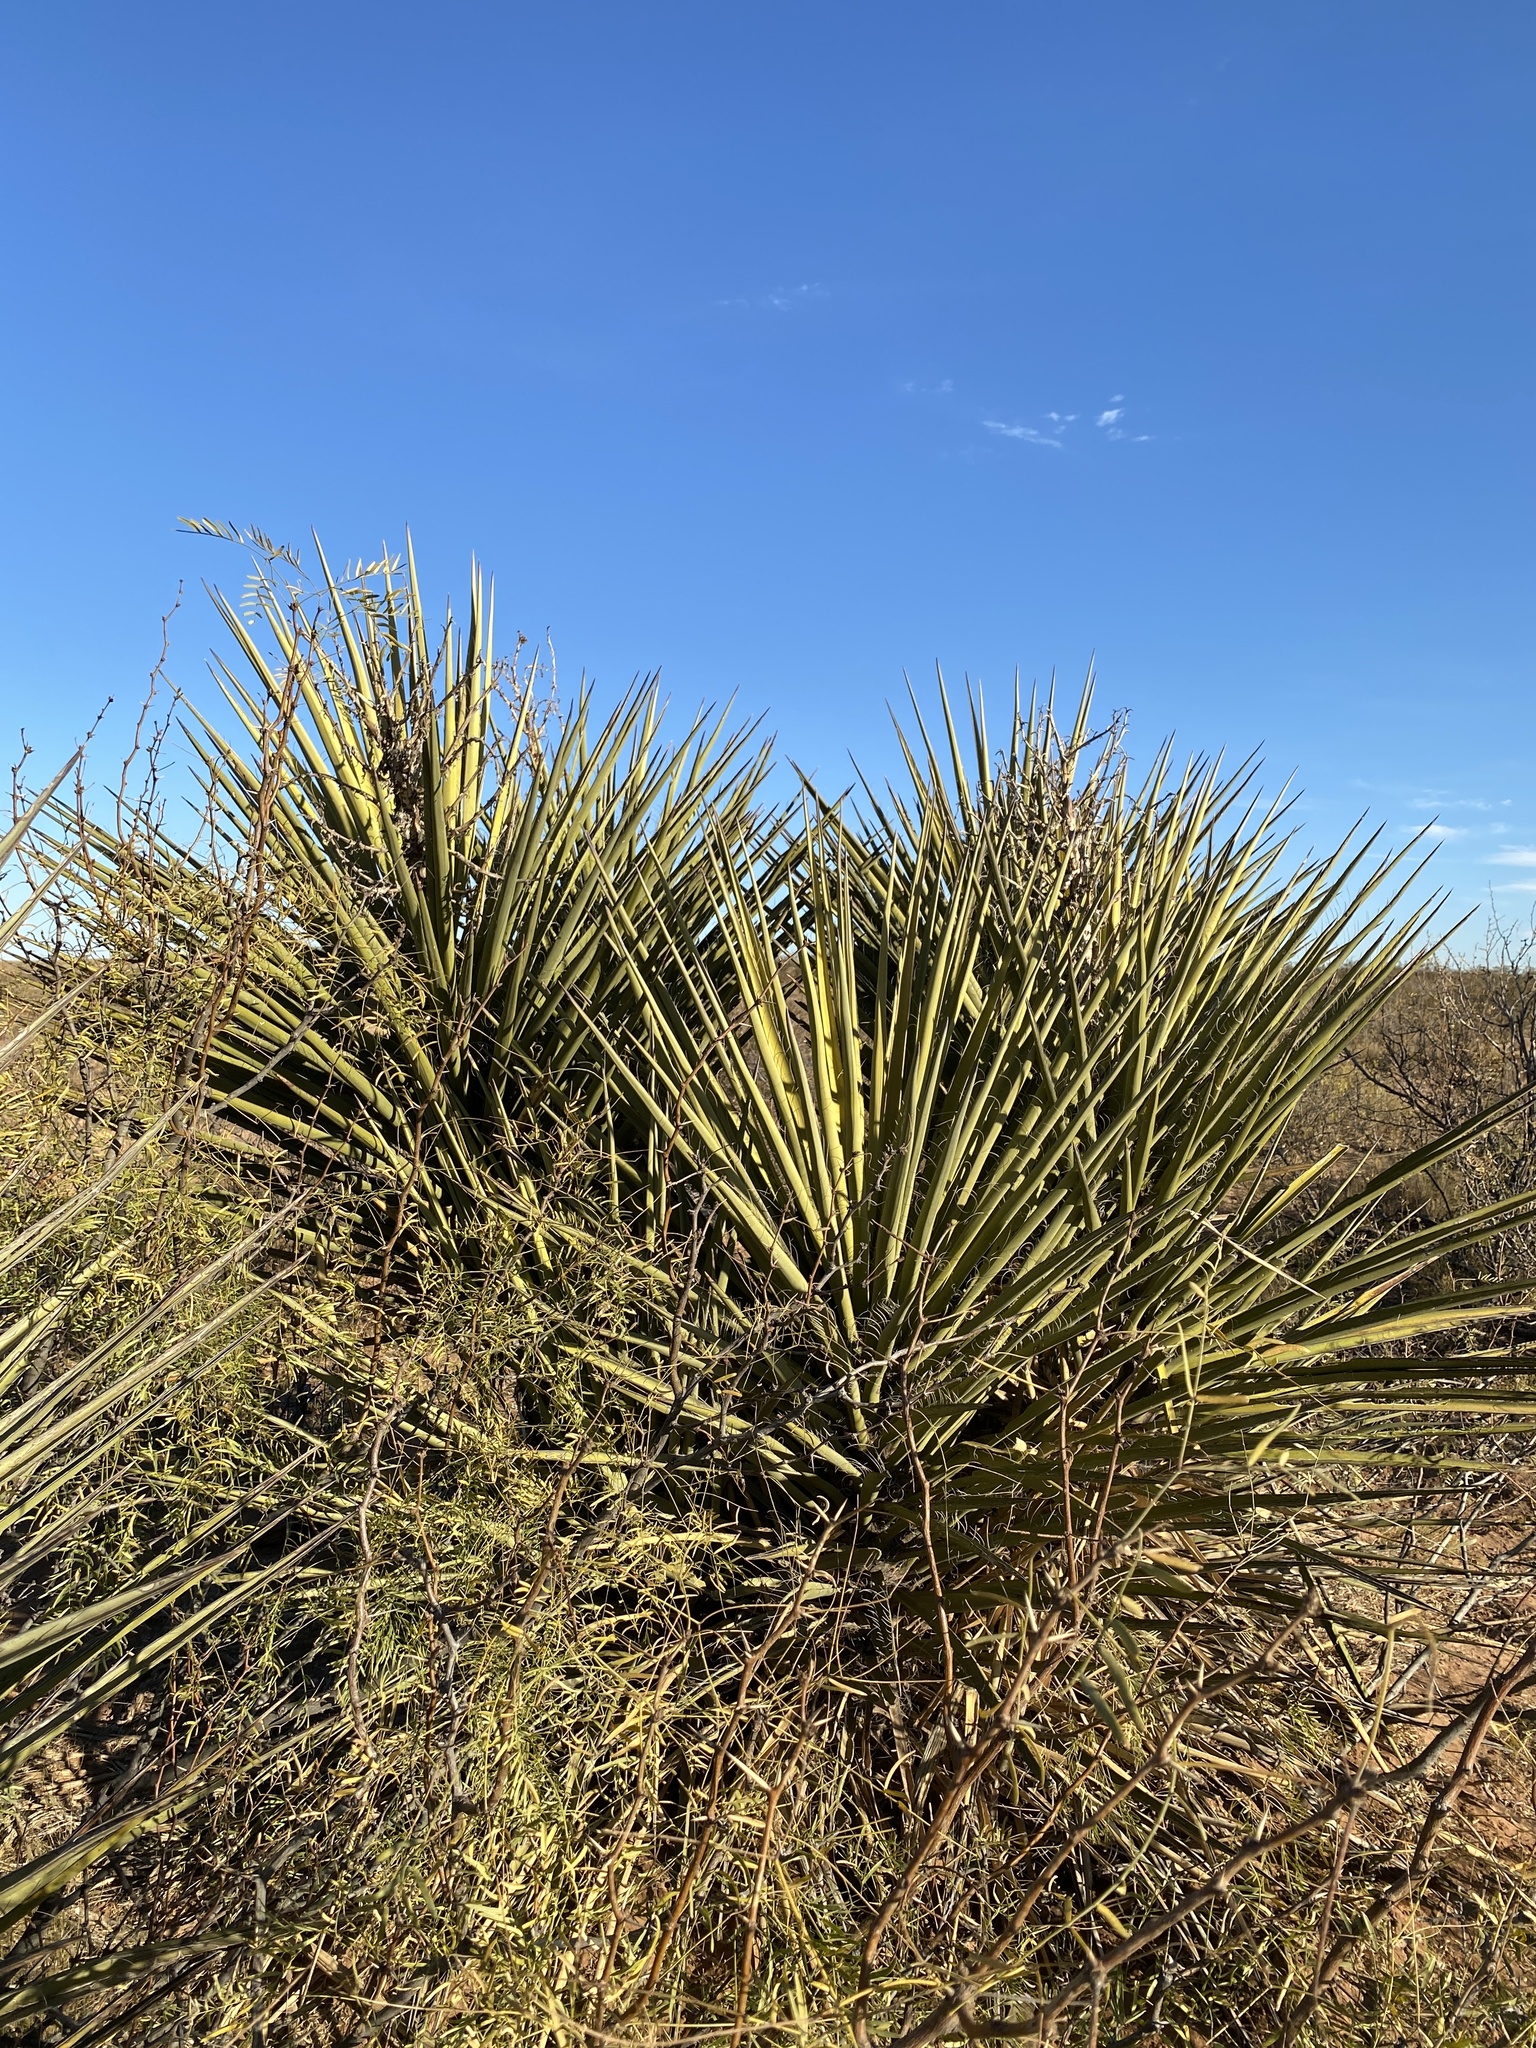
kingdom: Plantae
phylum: Tracheophyta
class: Liliopsida
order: Asparagales
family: Asparagaceae
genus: Yucca
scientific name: Yucca treculiana
